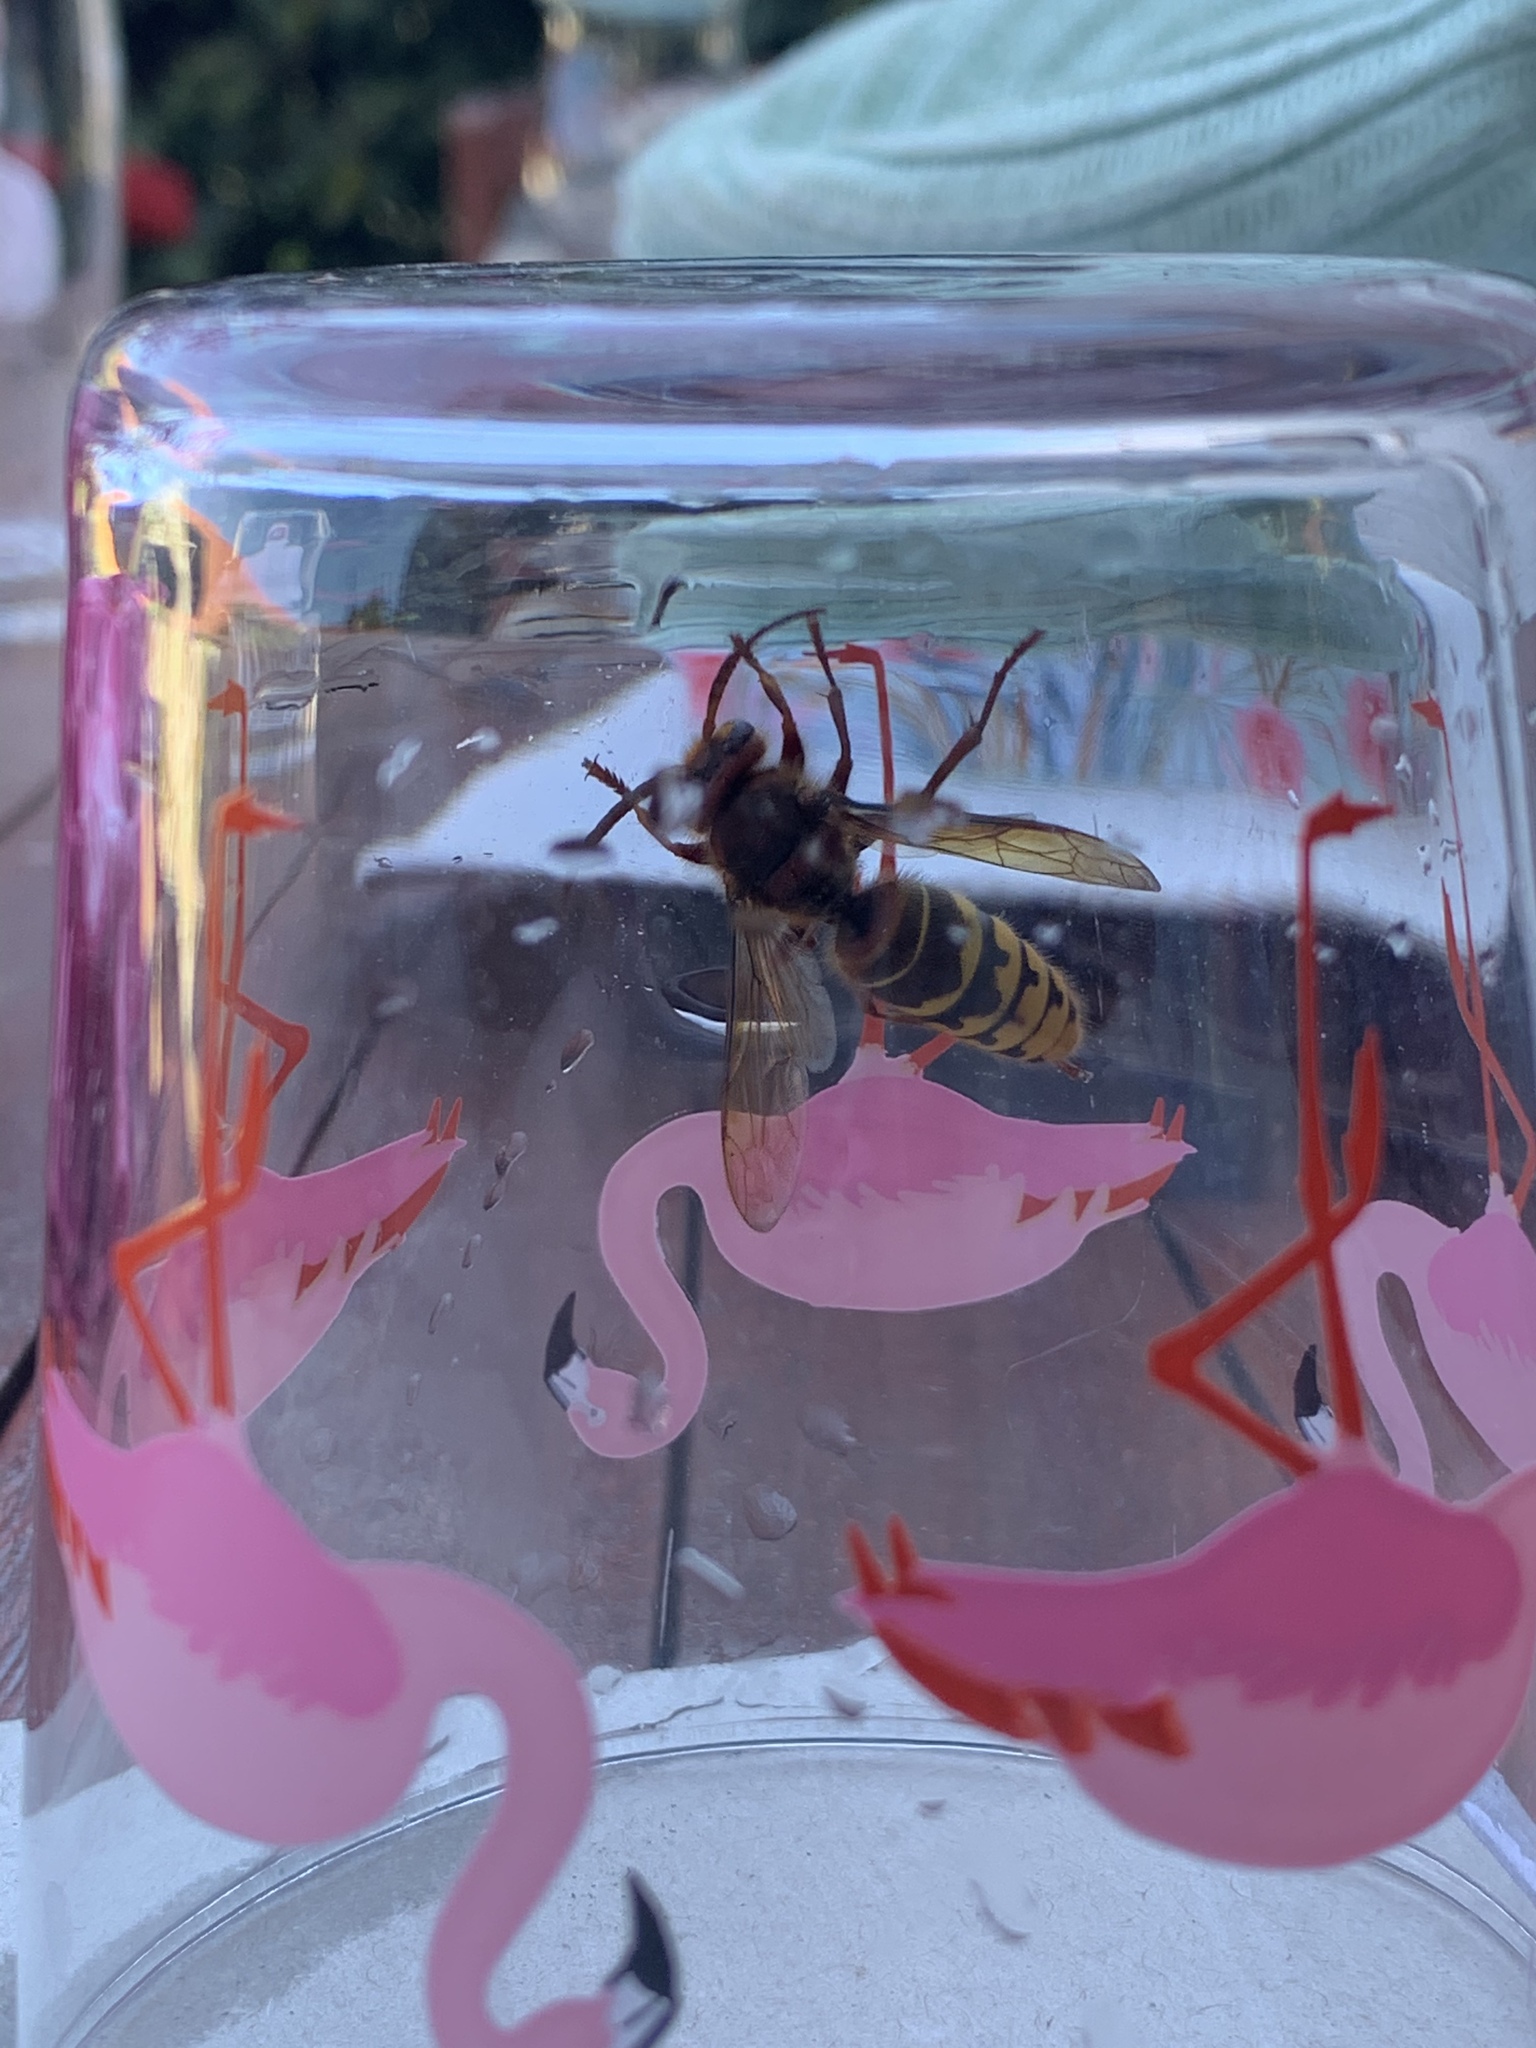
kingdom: Animalia
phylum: Arthropoda
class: Insecta
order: Hymenoptera
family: Vespidae
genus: Vespa
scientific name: Vespa crabro
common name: Hornet
